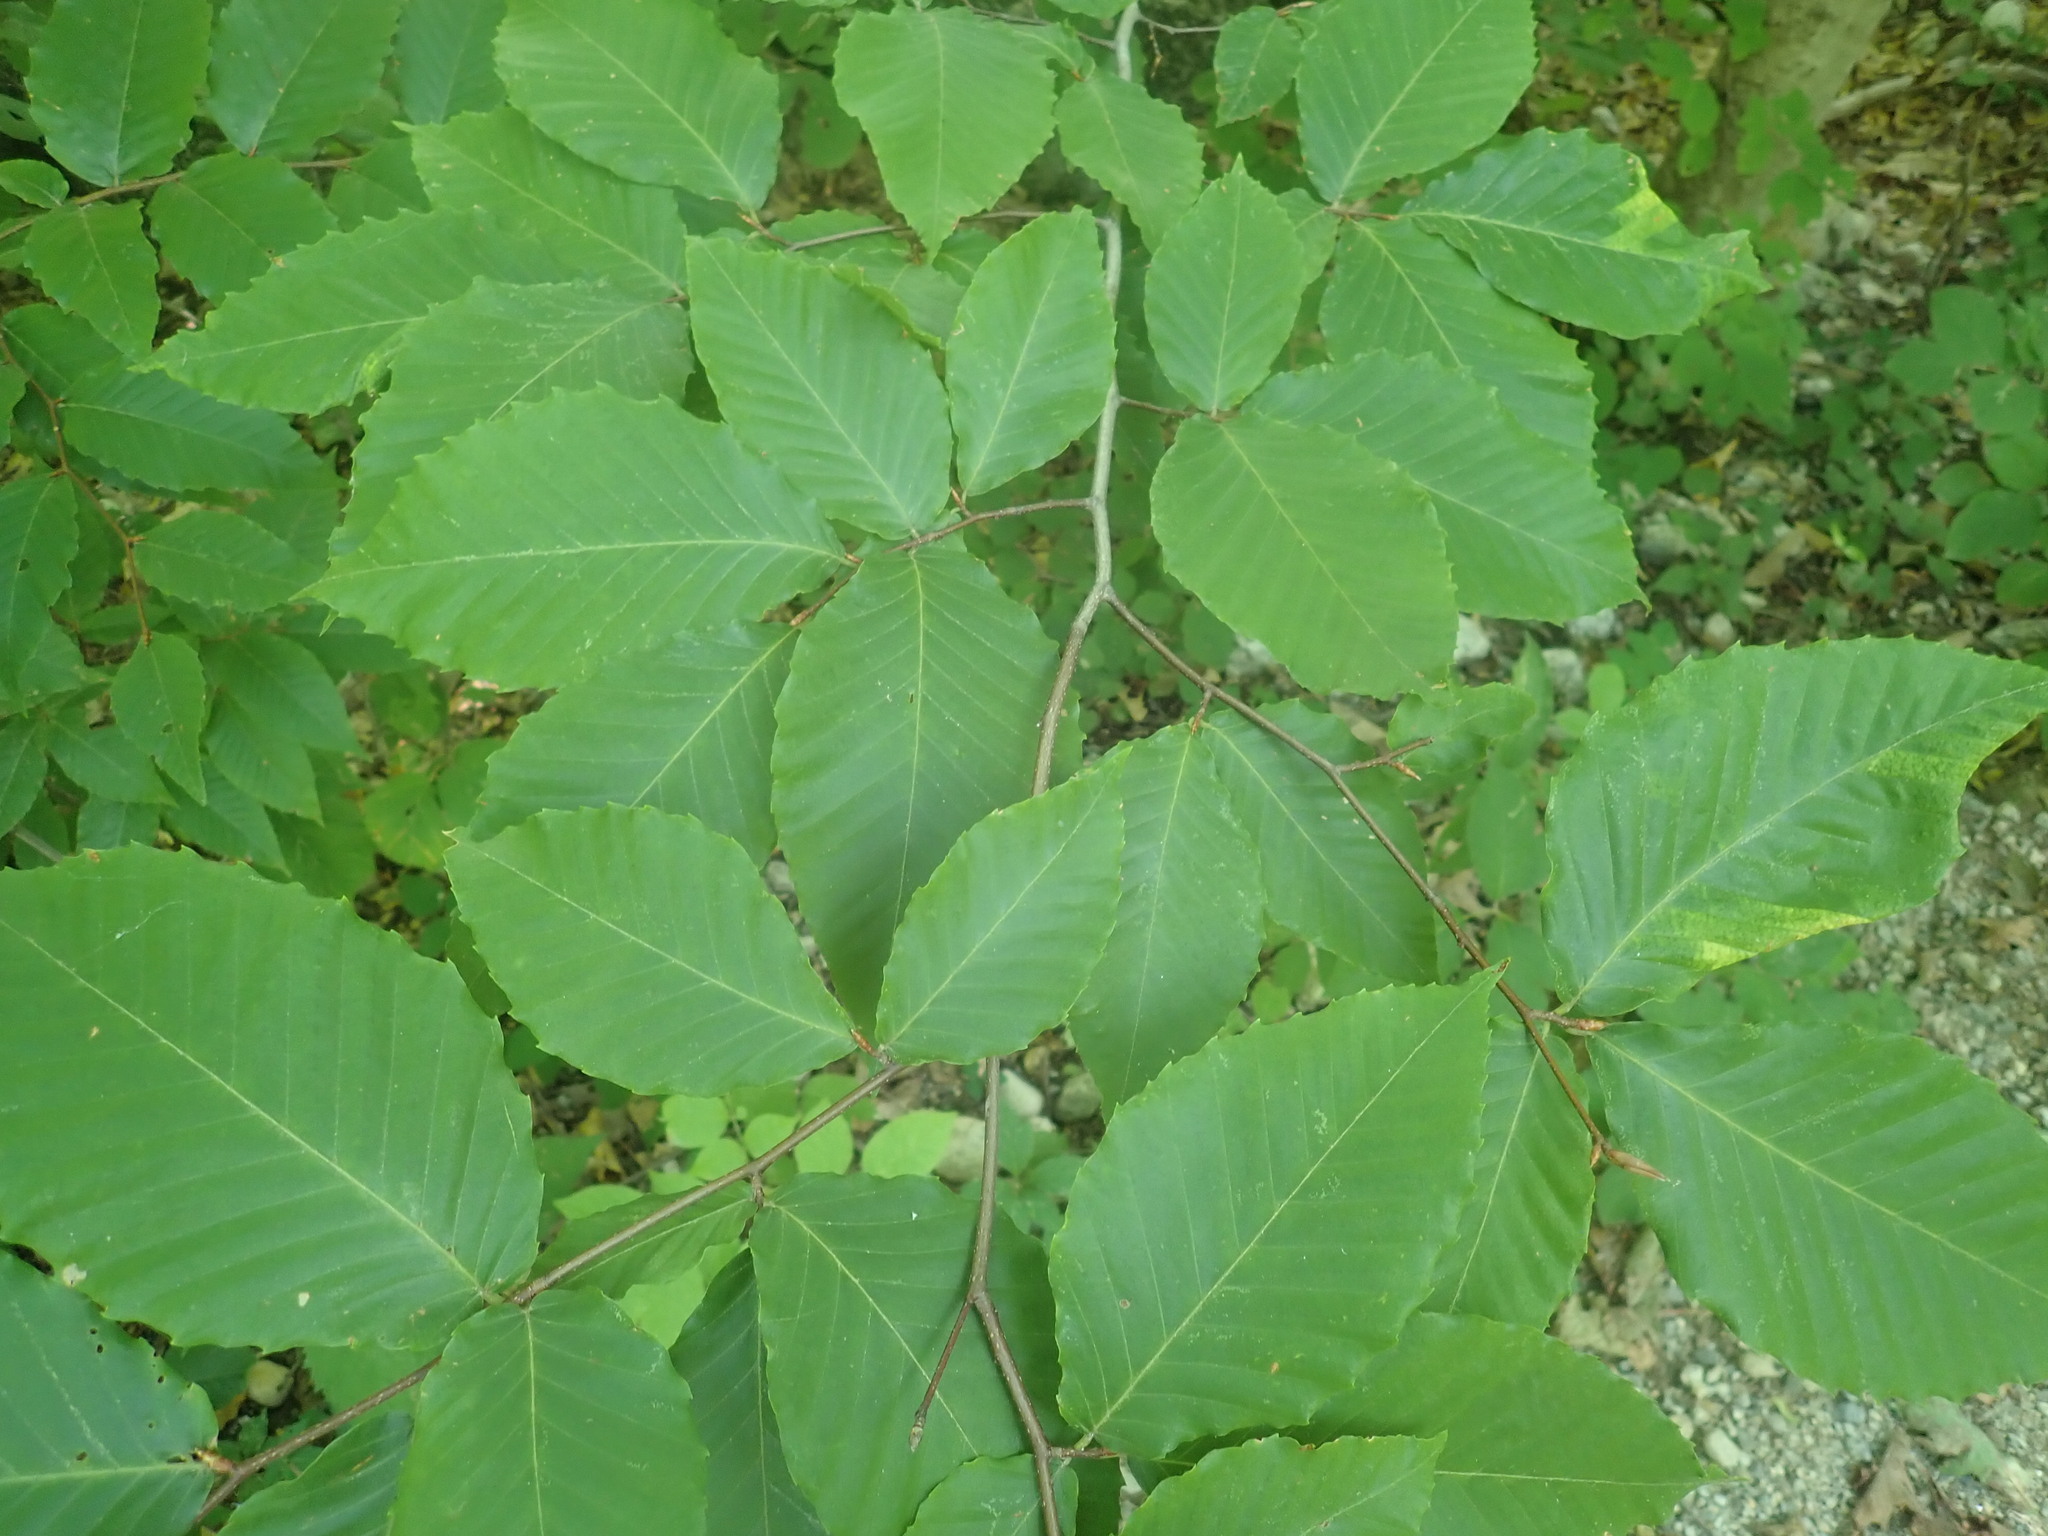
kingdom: Plantae
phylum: Tracheophyta
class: Magnoliopsida
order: Fagales
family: Fagaceae
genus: Fagus
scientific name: Fagus grandifolia
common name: American beech
